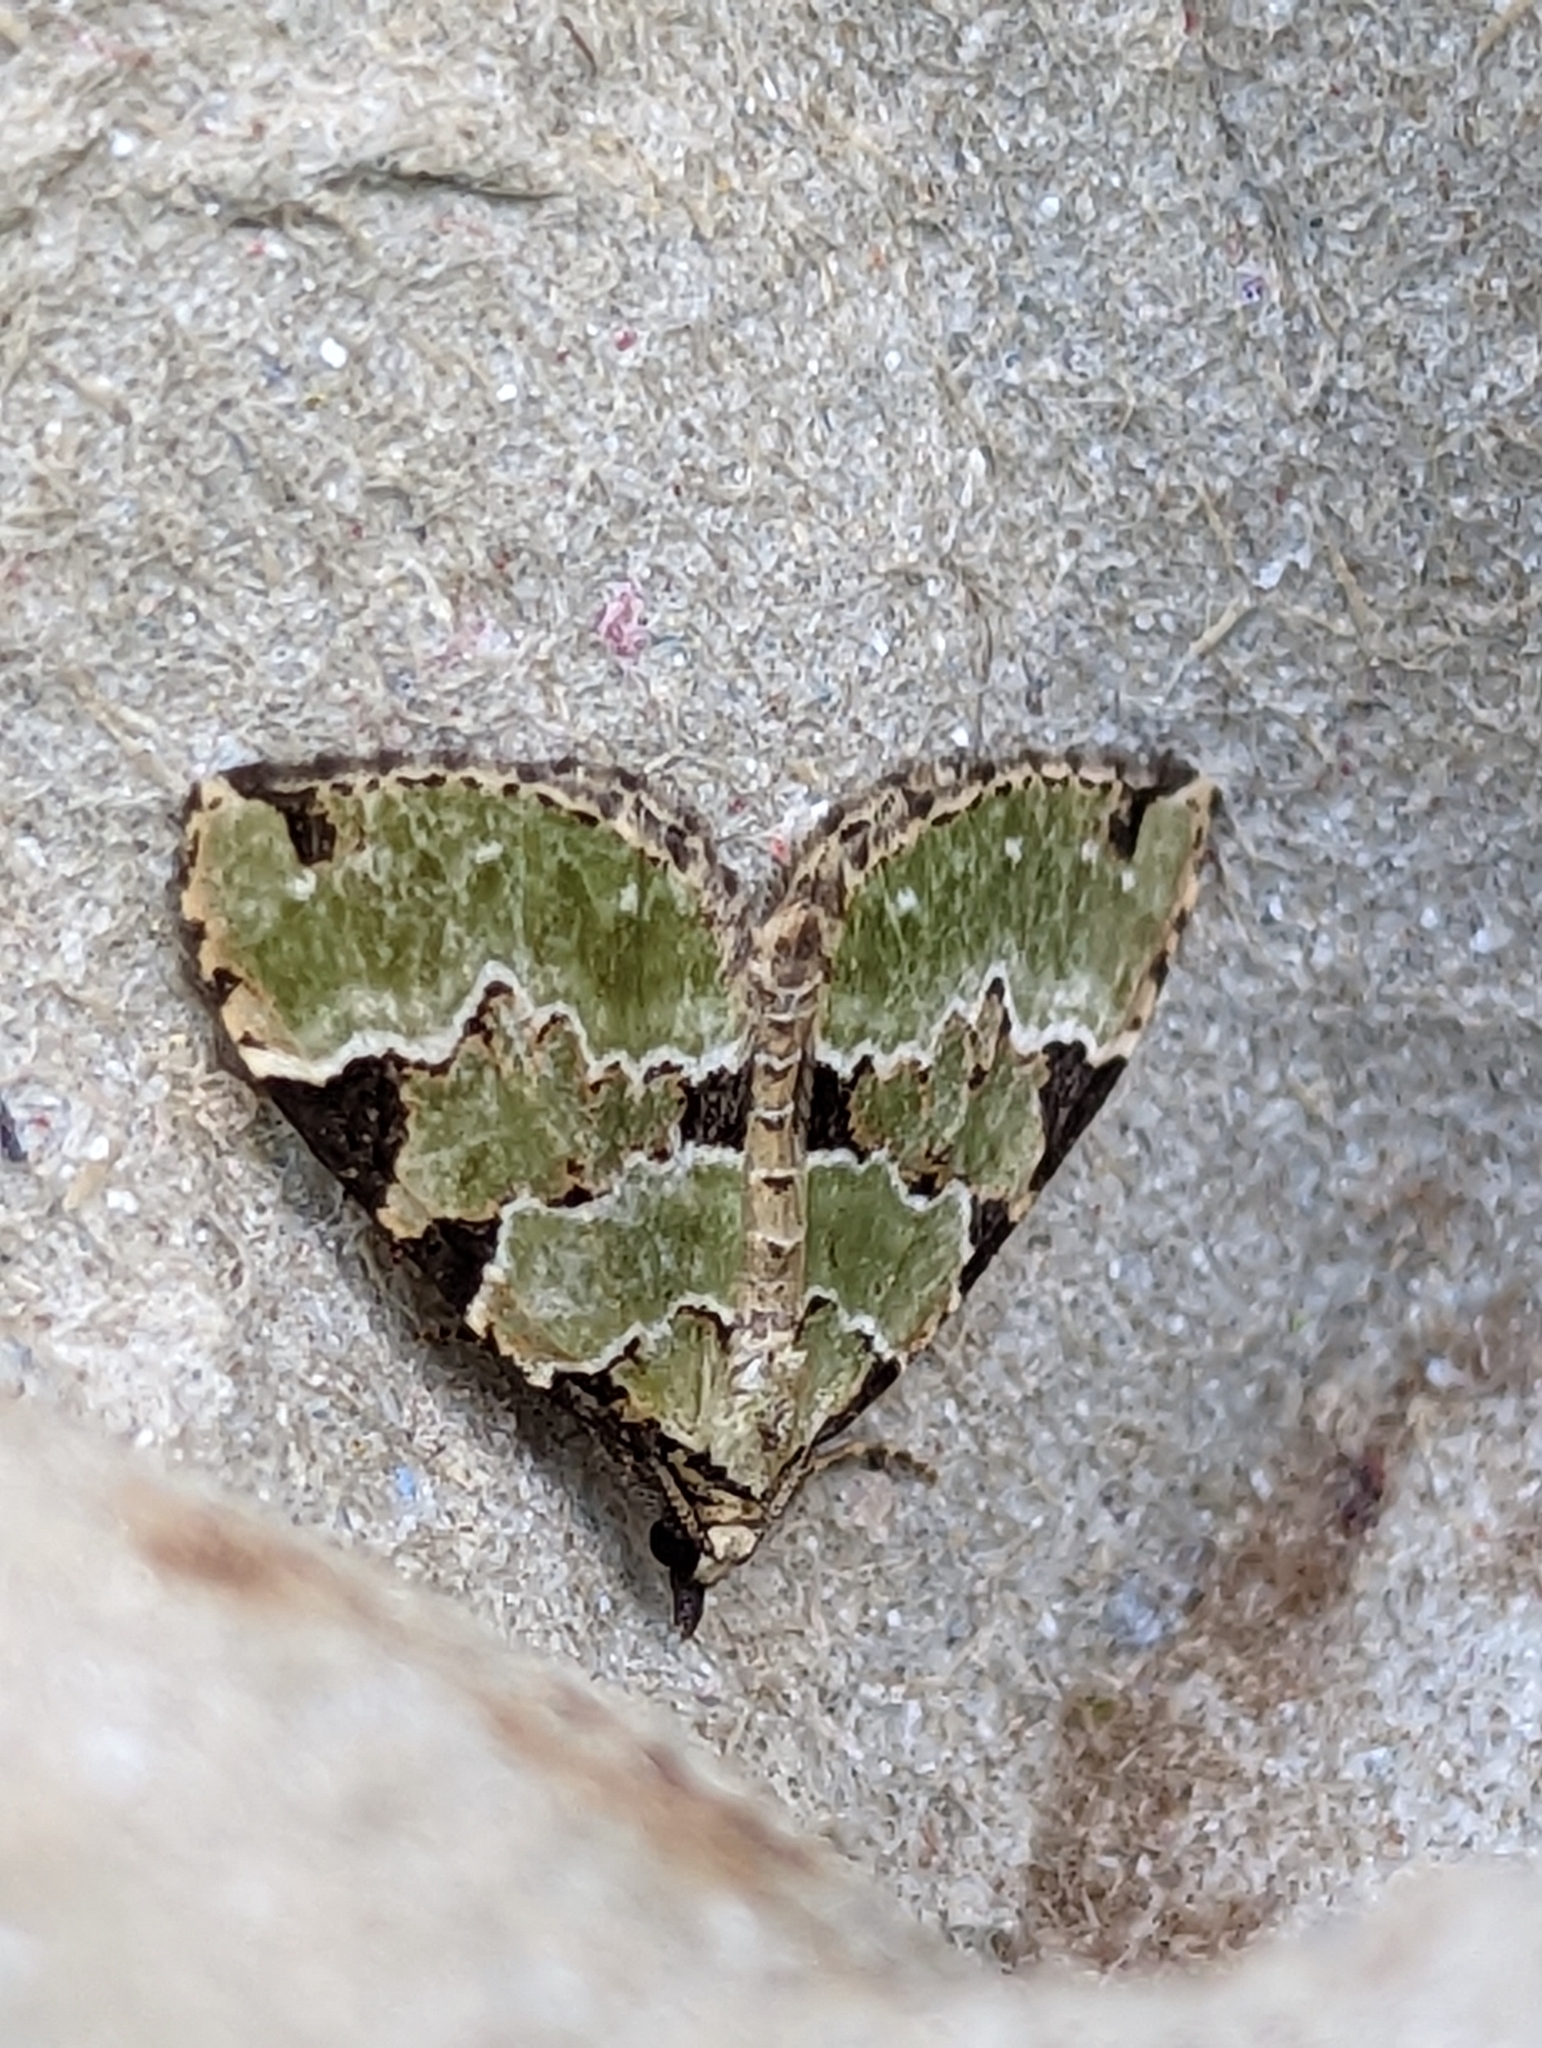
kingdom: Animalia
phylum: Arthropoda
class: Insecta
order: Lepidoptera
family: Geometridae
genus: Colostygia
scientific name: Colostygia pectinataria
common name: Green carpet
